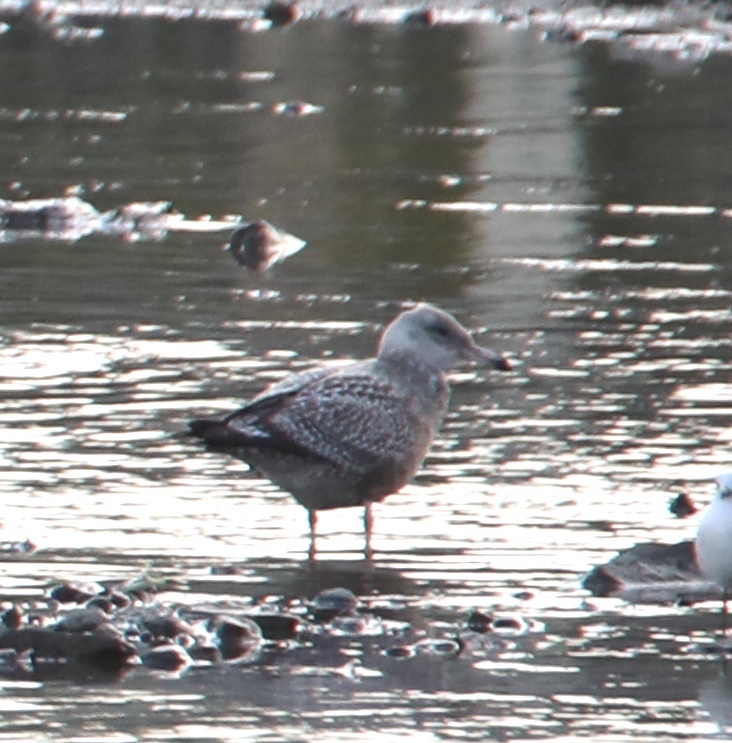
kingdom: Animalia
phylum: Chordata
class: Aves
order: Charadriiformes
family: Laridae
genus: Larus
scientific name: Larus argentatus
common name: Herring gull
